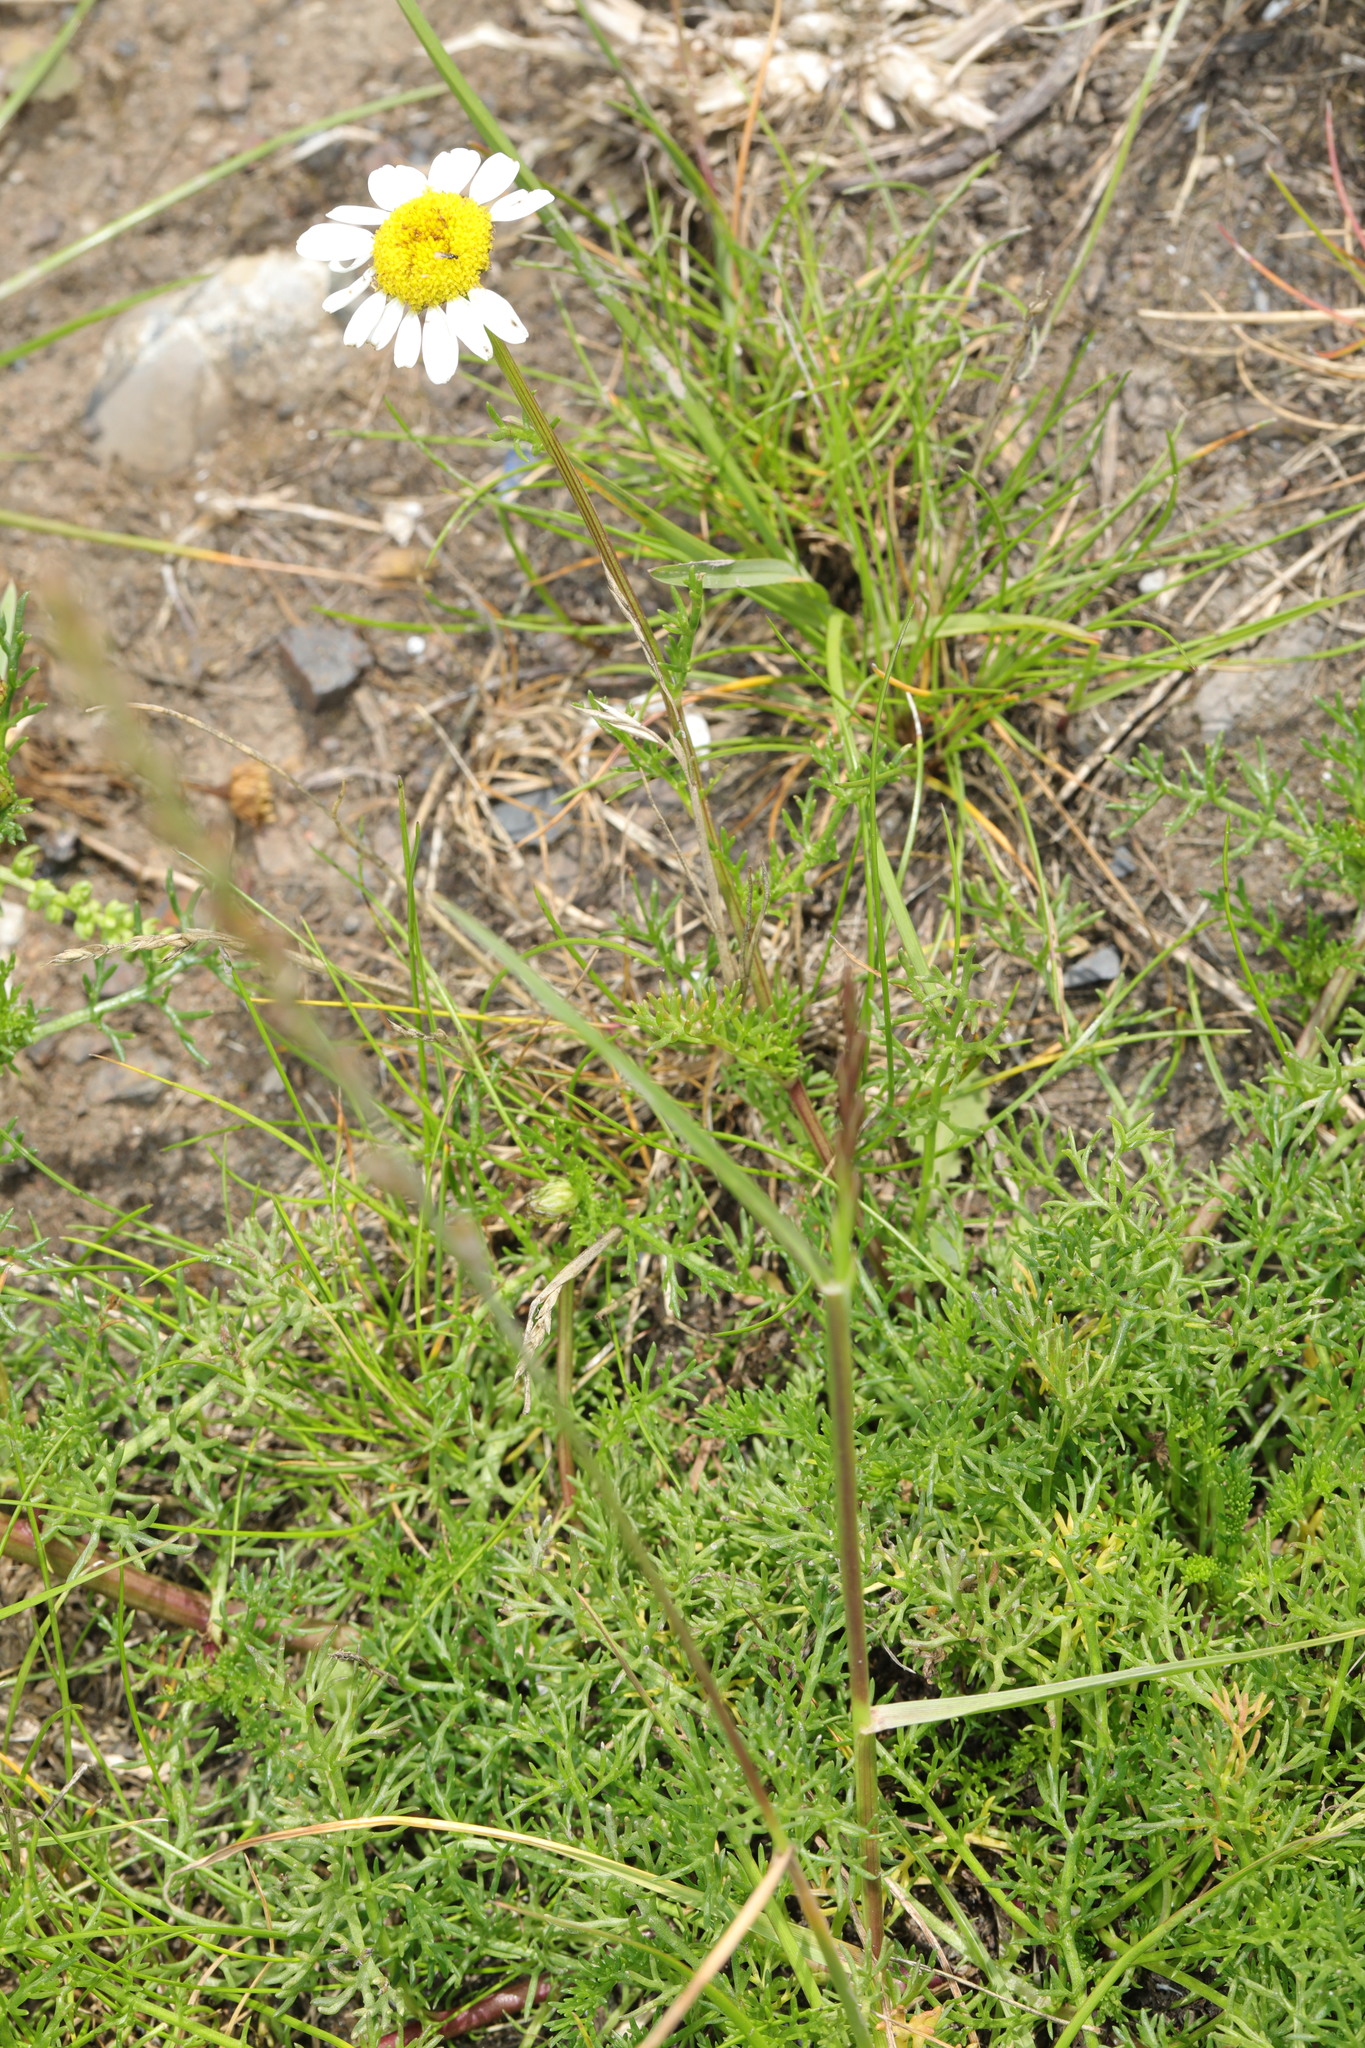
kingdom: Plantae
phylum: Tracheophyta
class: Magnoliopsida
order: Asterales
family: Asteraceae
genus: Tripleurospermum
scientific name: Tripleurospermum maritimum
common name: Sea mayweed
